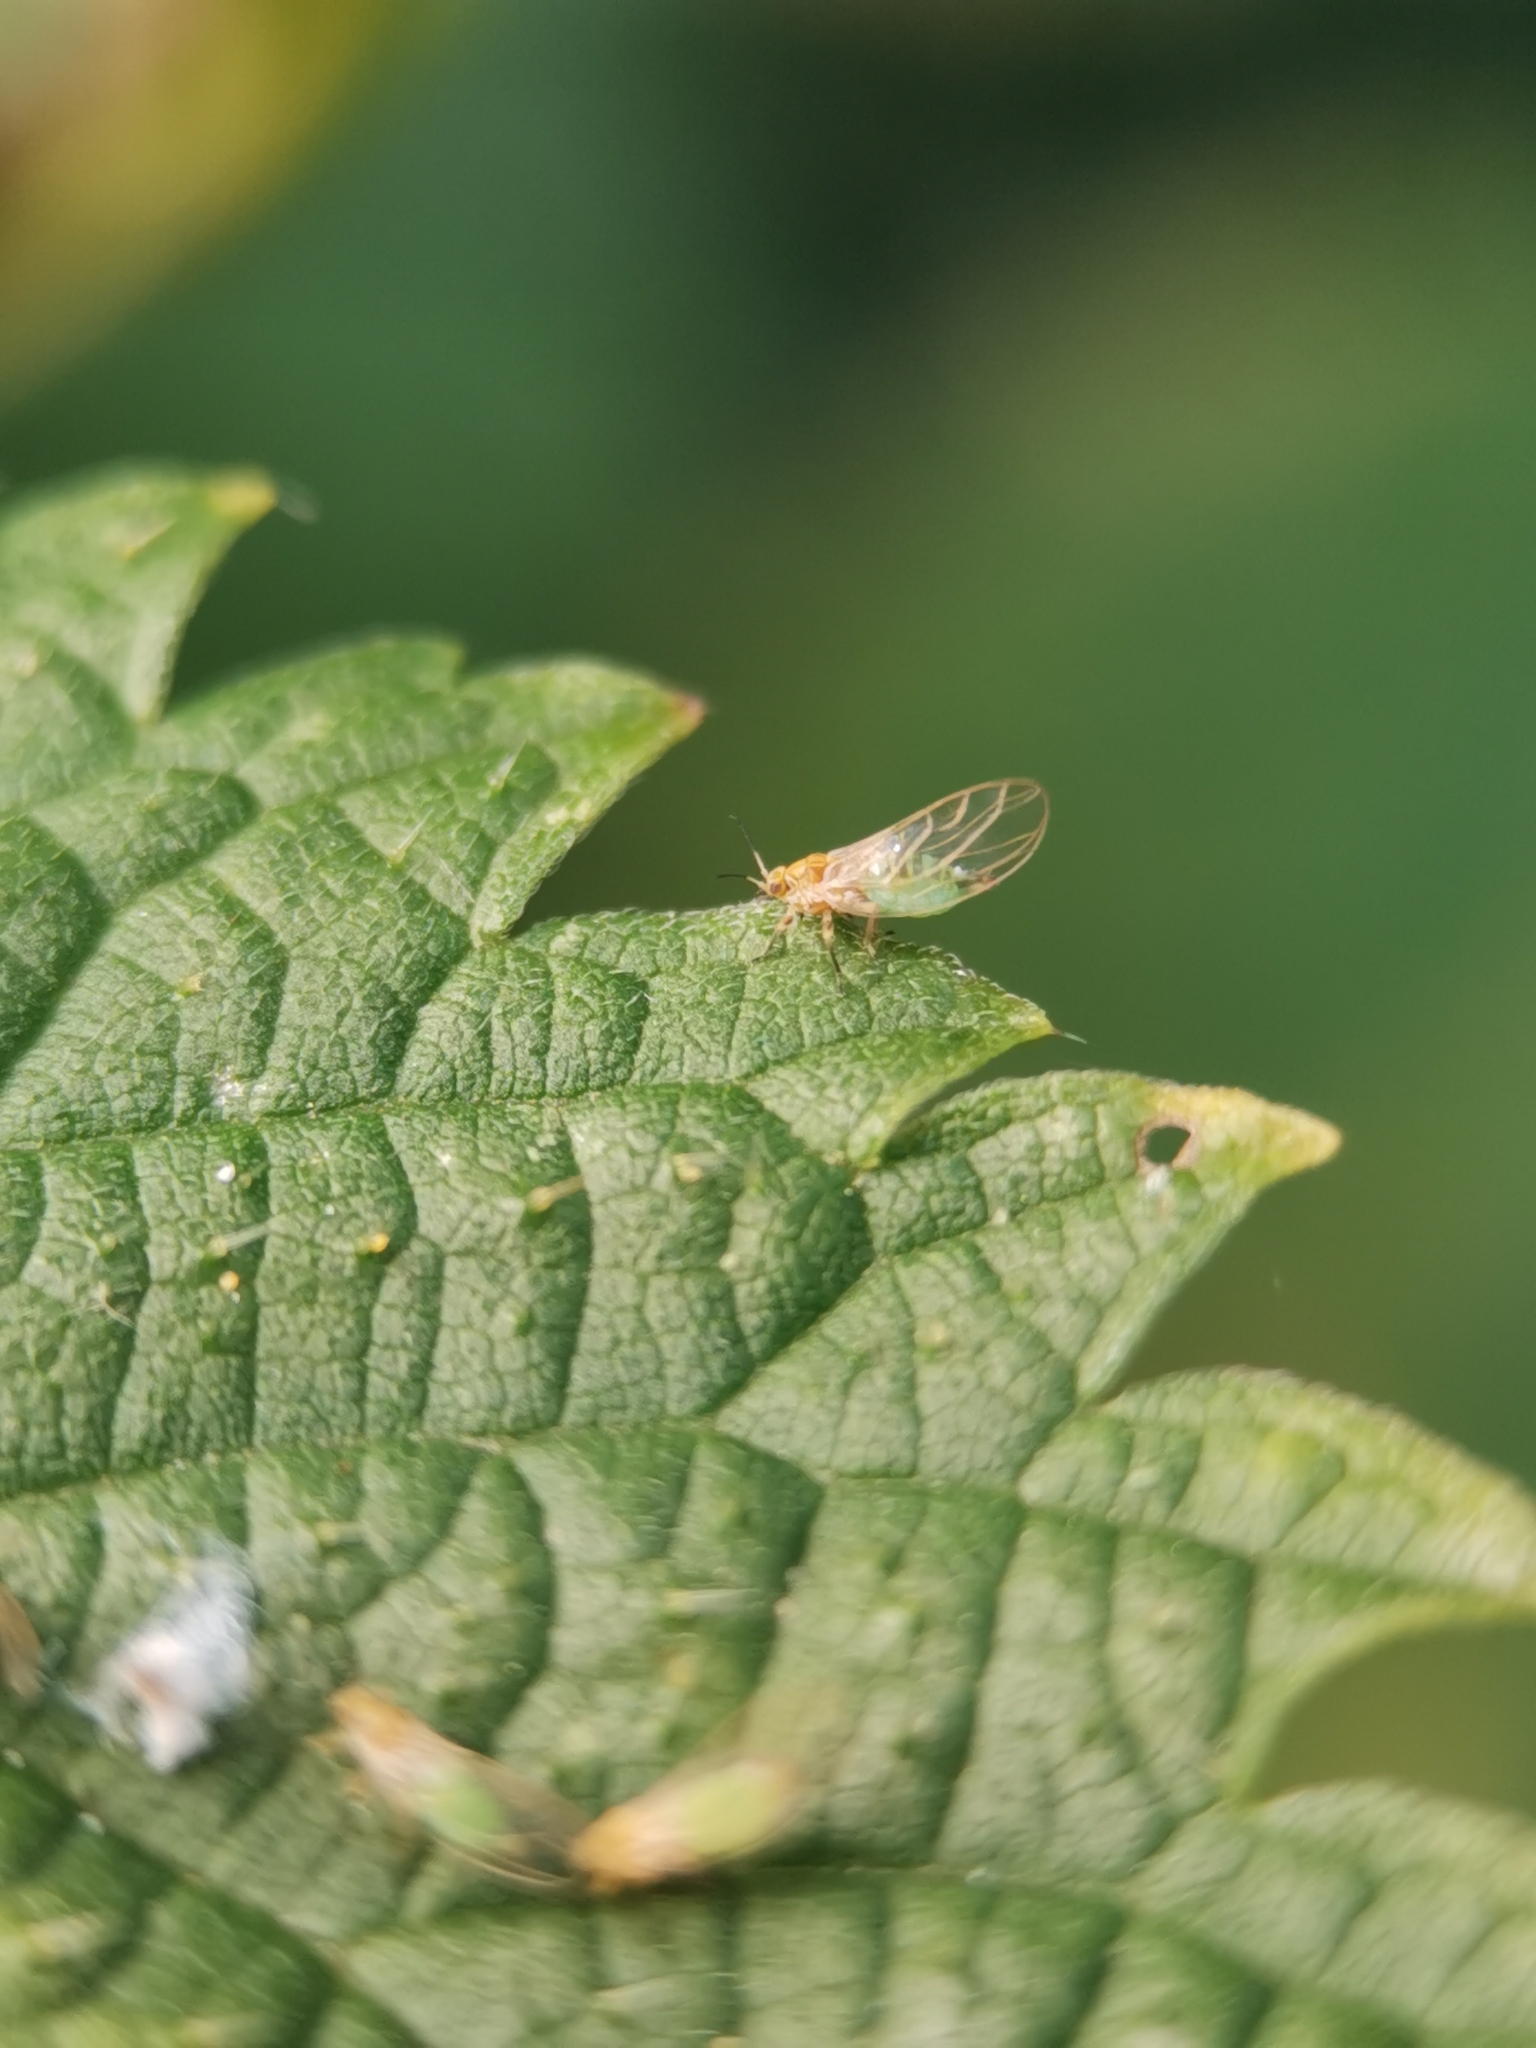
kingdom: Animalia
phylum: Arthropoda
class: Insecta
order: Hemiptera
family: Triozidae
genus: Trioza
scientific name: Trioza urticae
